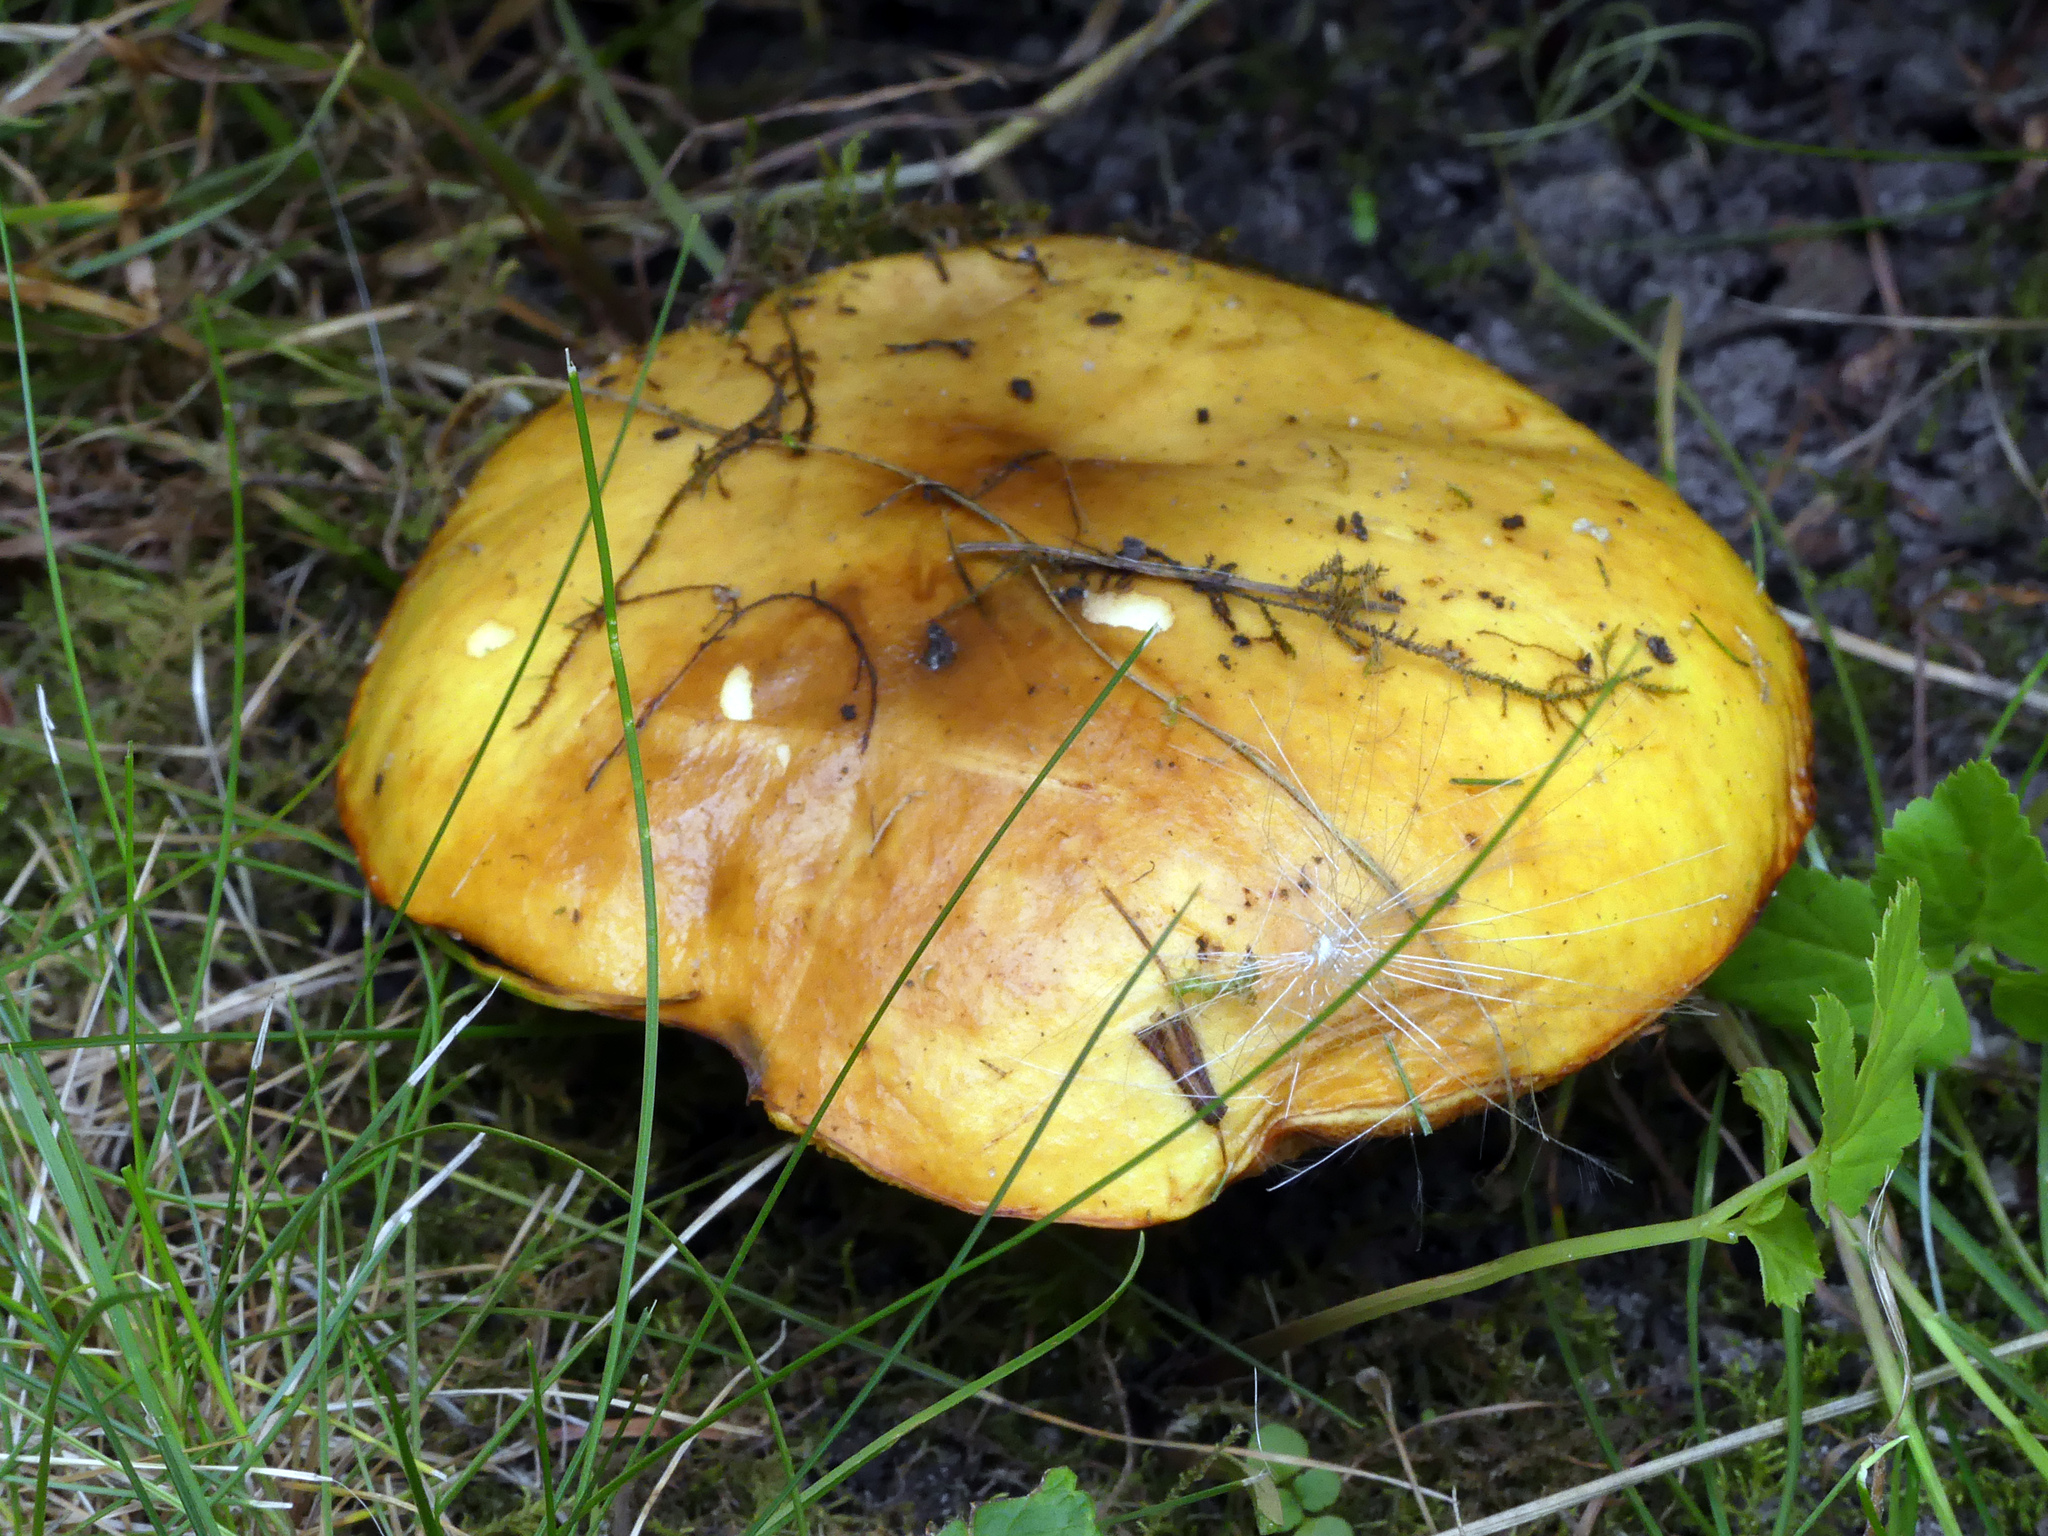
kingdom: Fungi
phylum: Basidiomycota
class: Agaricomycetes
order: Boletales
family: Suillaceae
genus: Suillus
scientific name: Suillus grevillei
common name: Larch bolete
